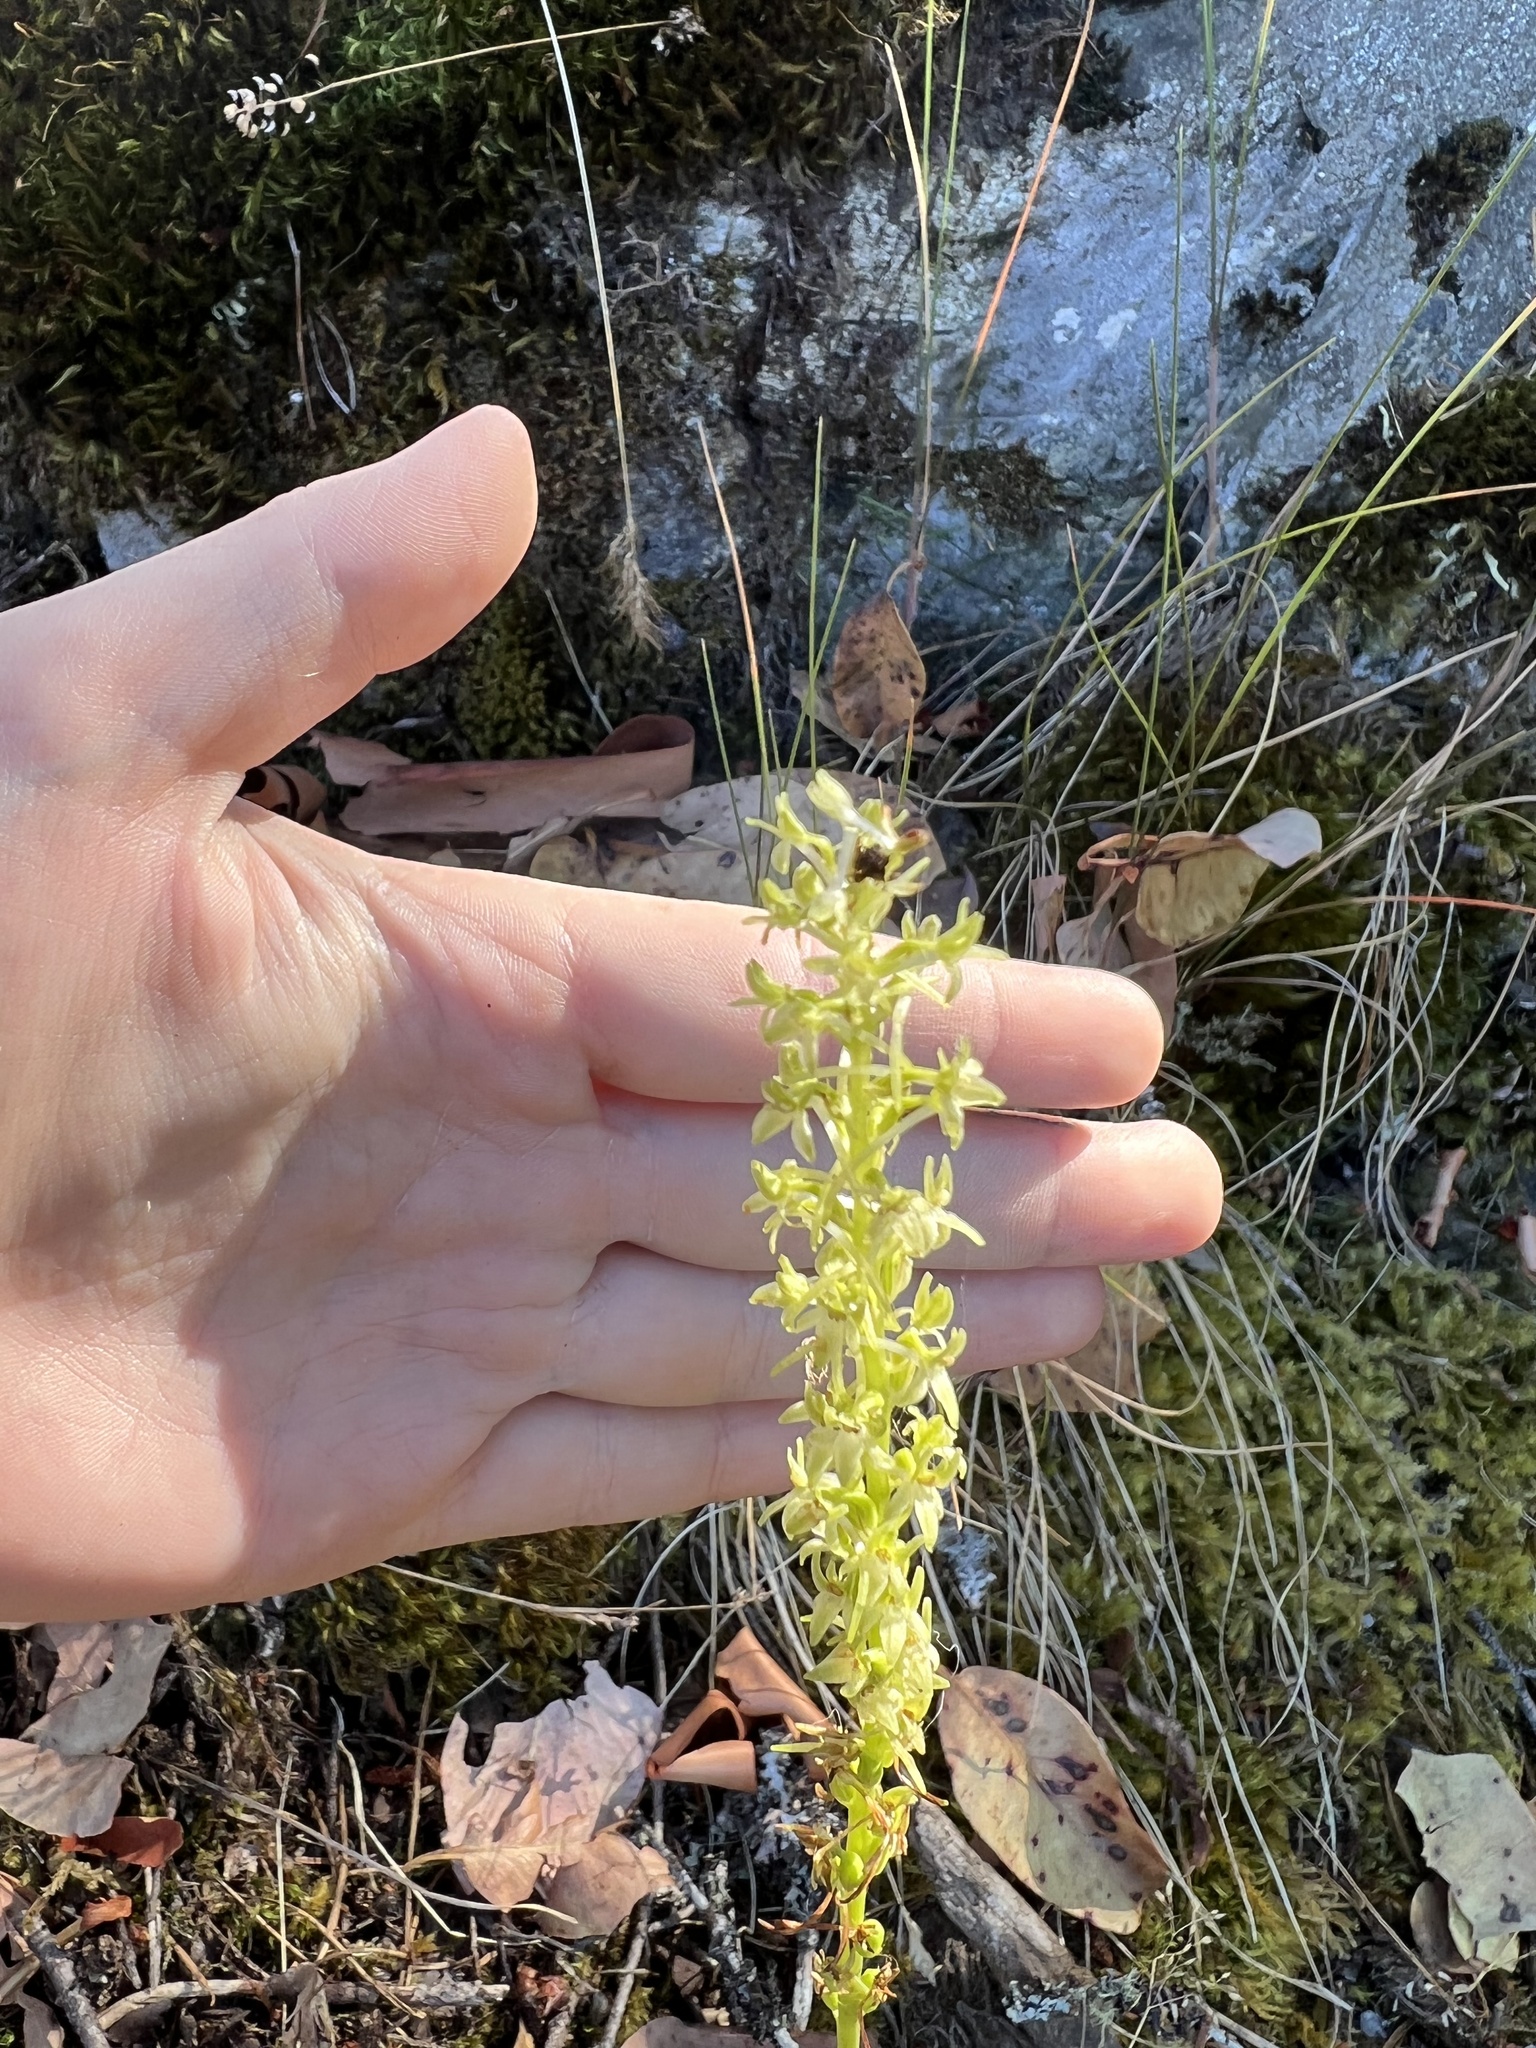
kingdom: Plantae
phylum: Tracheophyta
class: Liliopsida
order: Asparagales
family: Orchidaceae
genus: Platanthera
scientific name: Platanthera elongata
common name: Dense-flowered rein orchid
